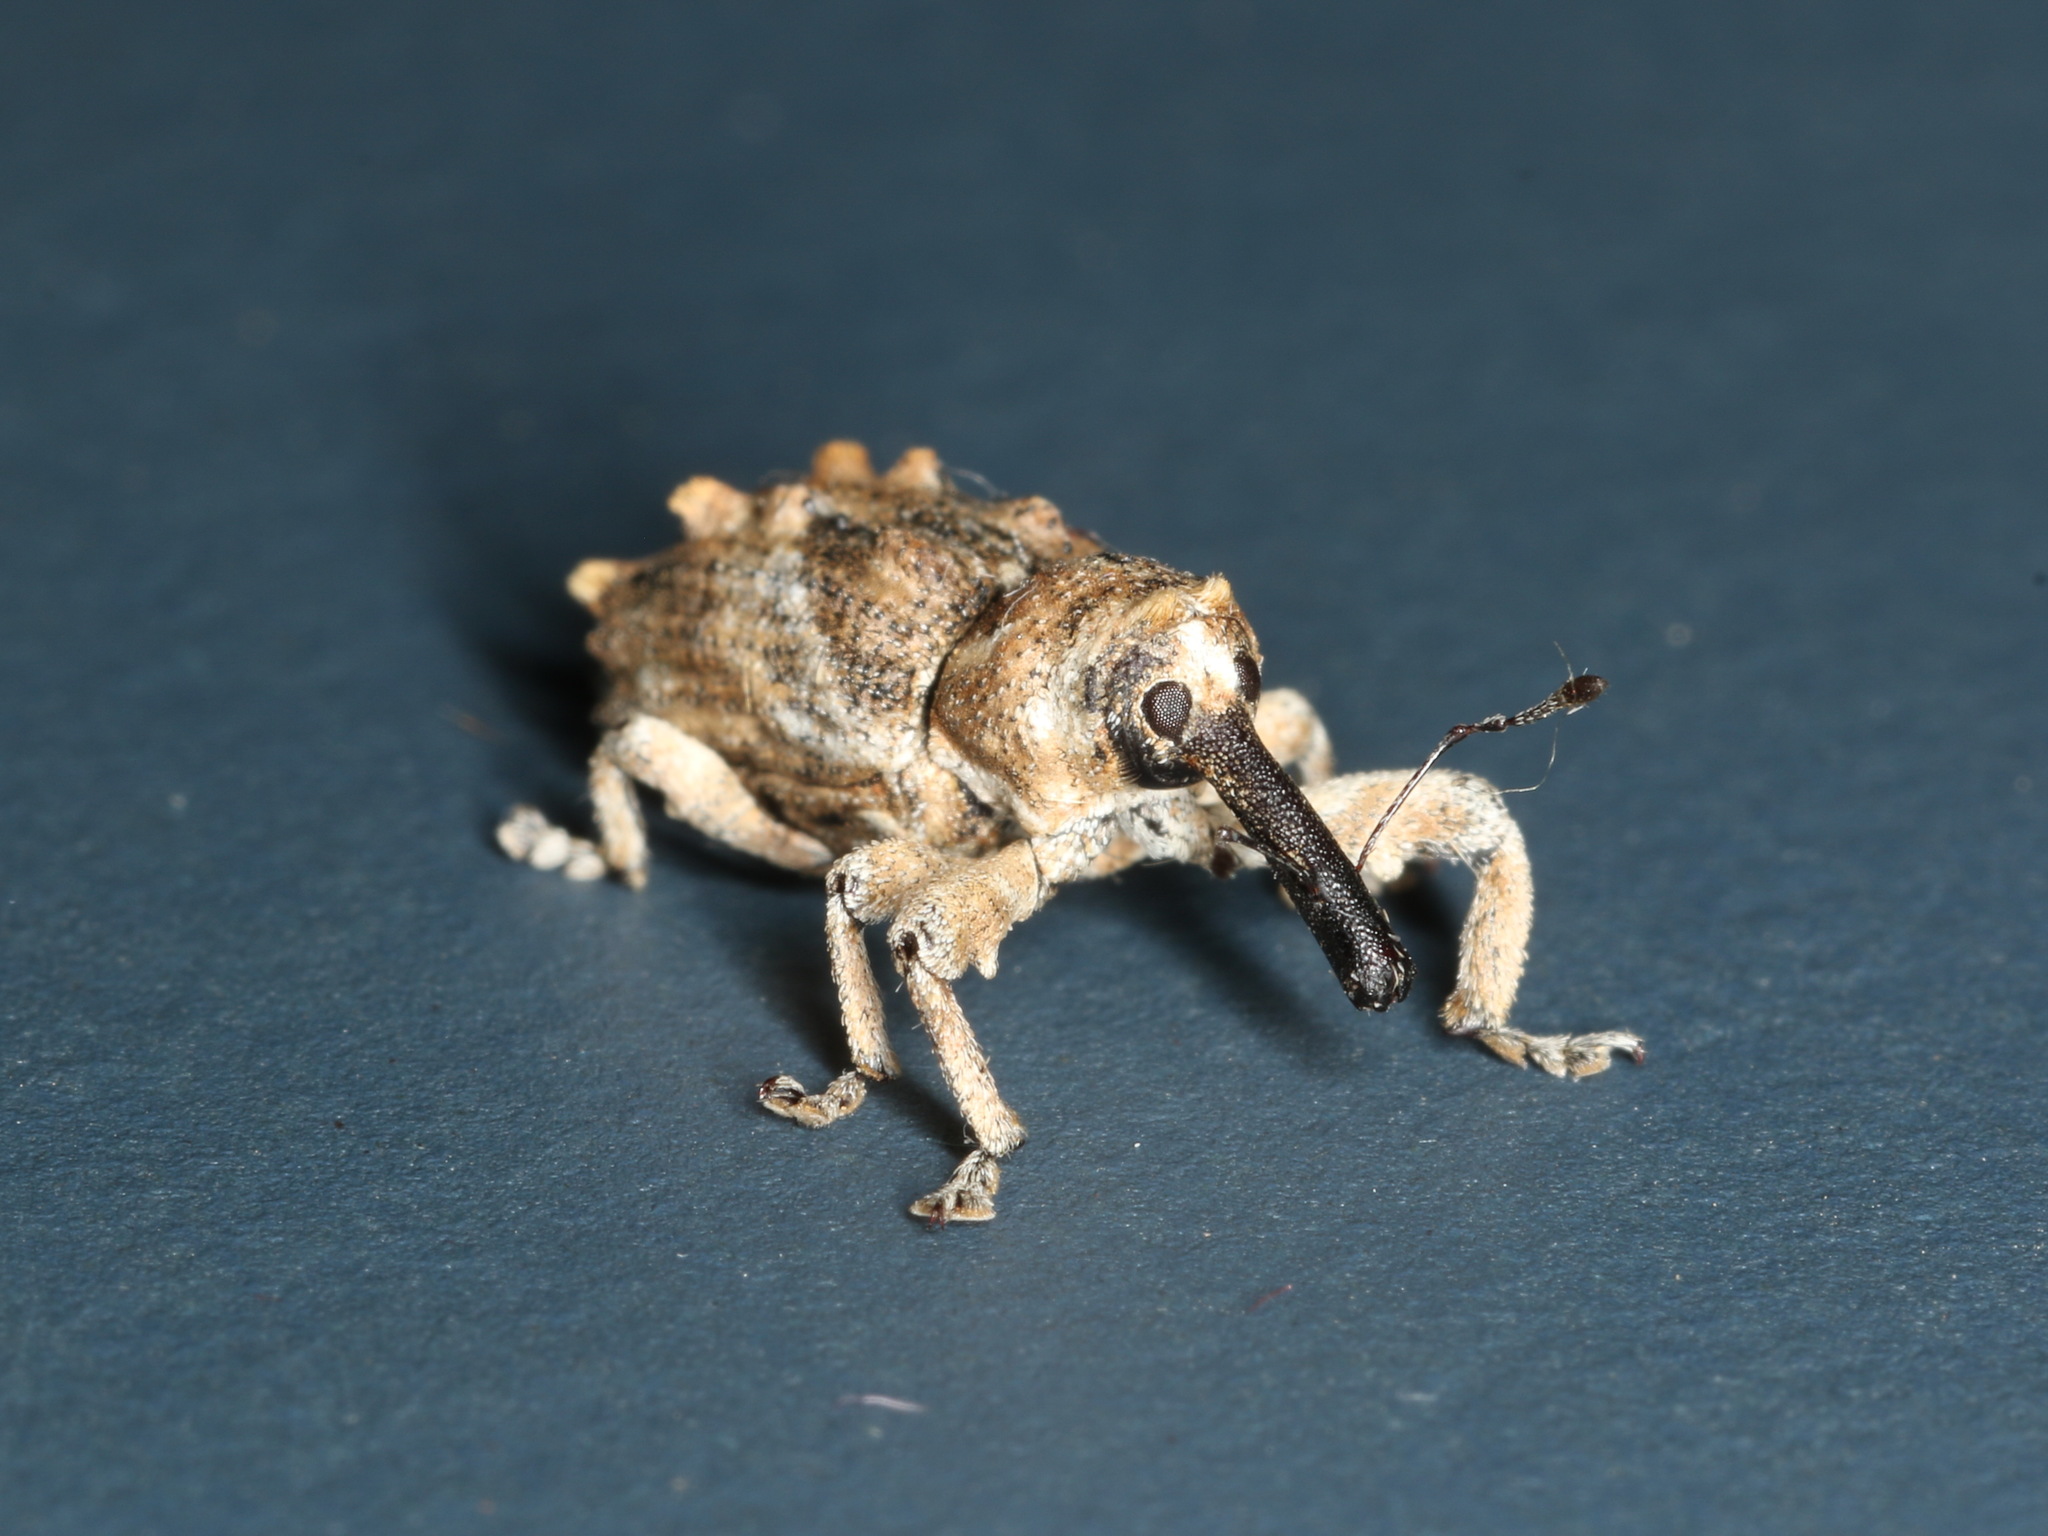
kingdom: Animalia
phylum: Arthropoda
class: Insecta
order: Coleoptera
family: Curculionidae
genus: Orthorhinus
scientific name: Orthorhinus klugii
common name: Vine weevil
